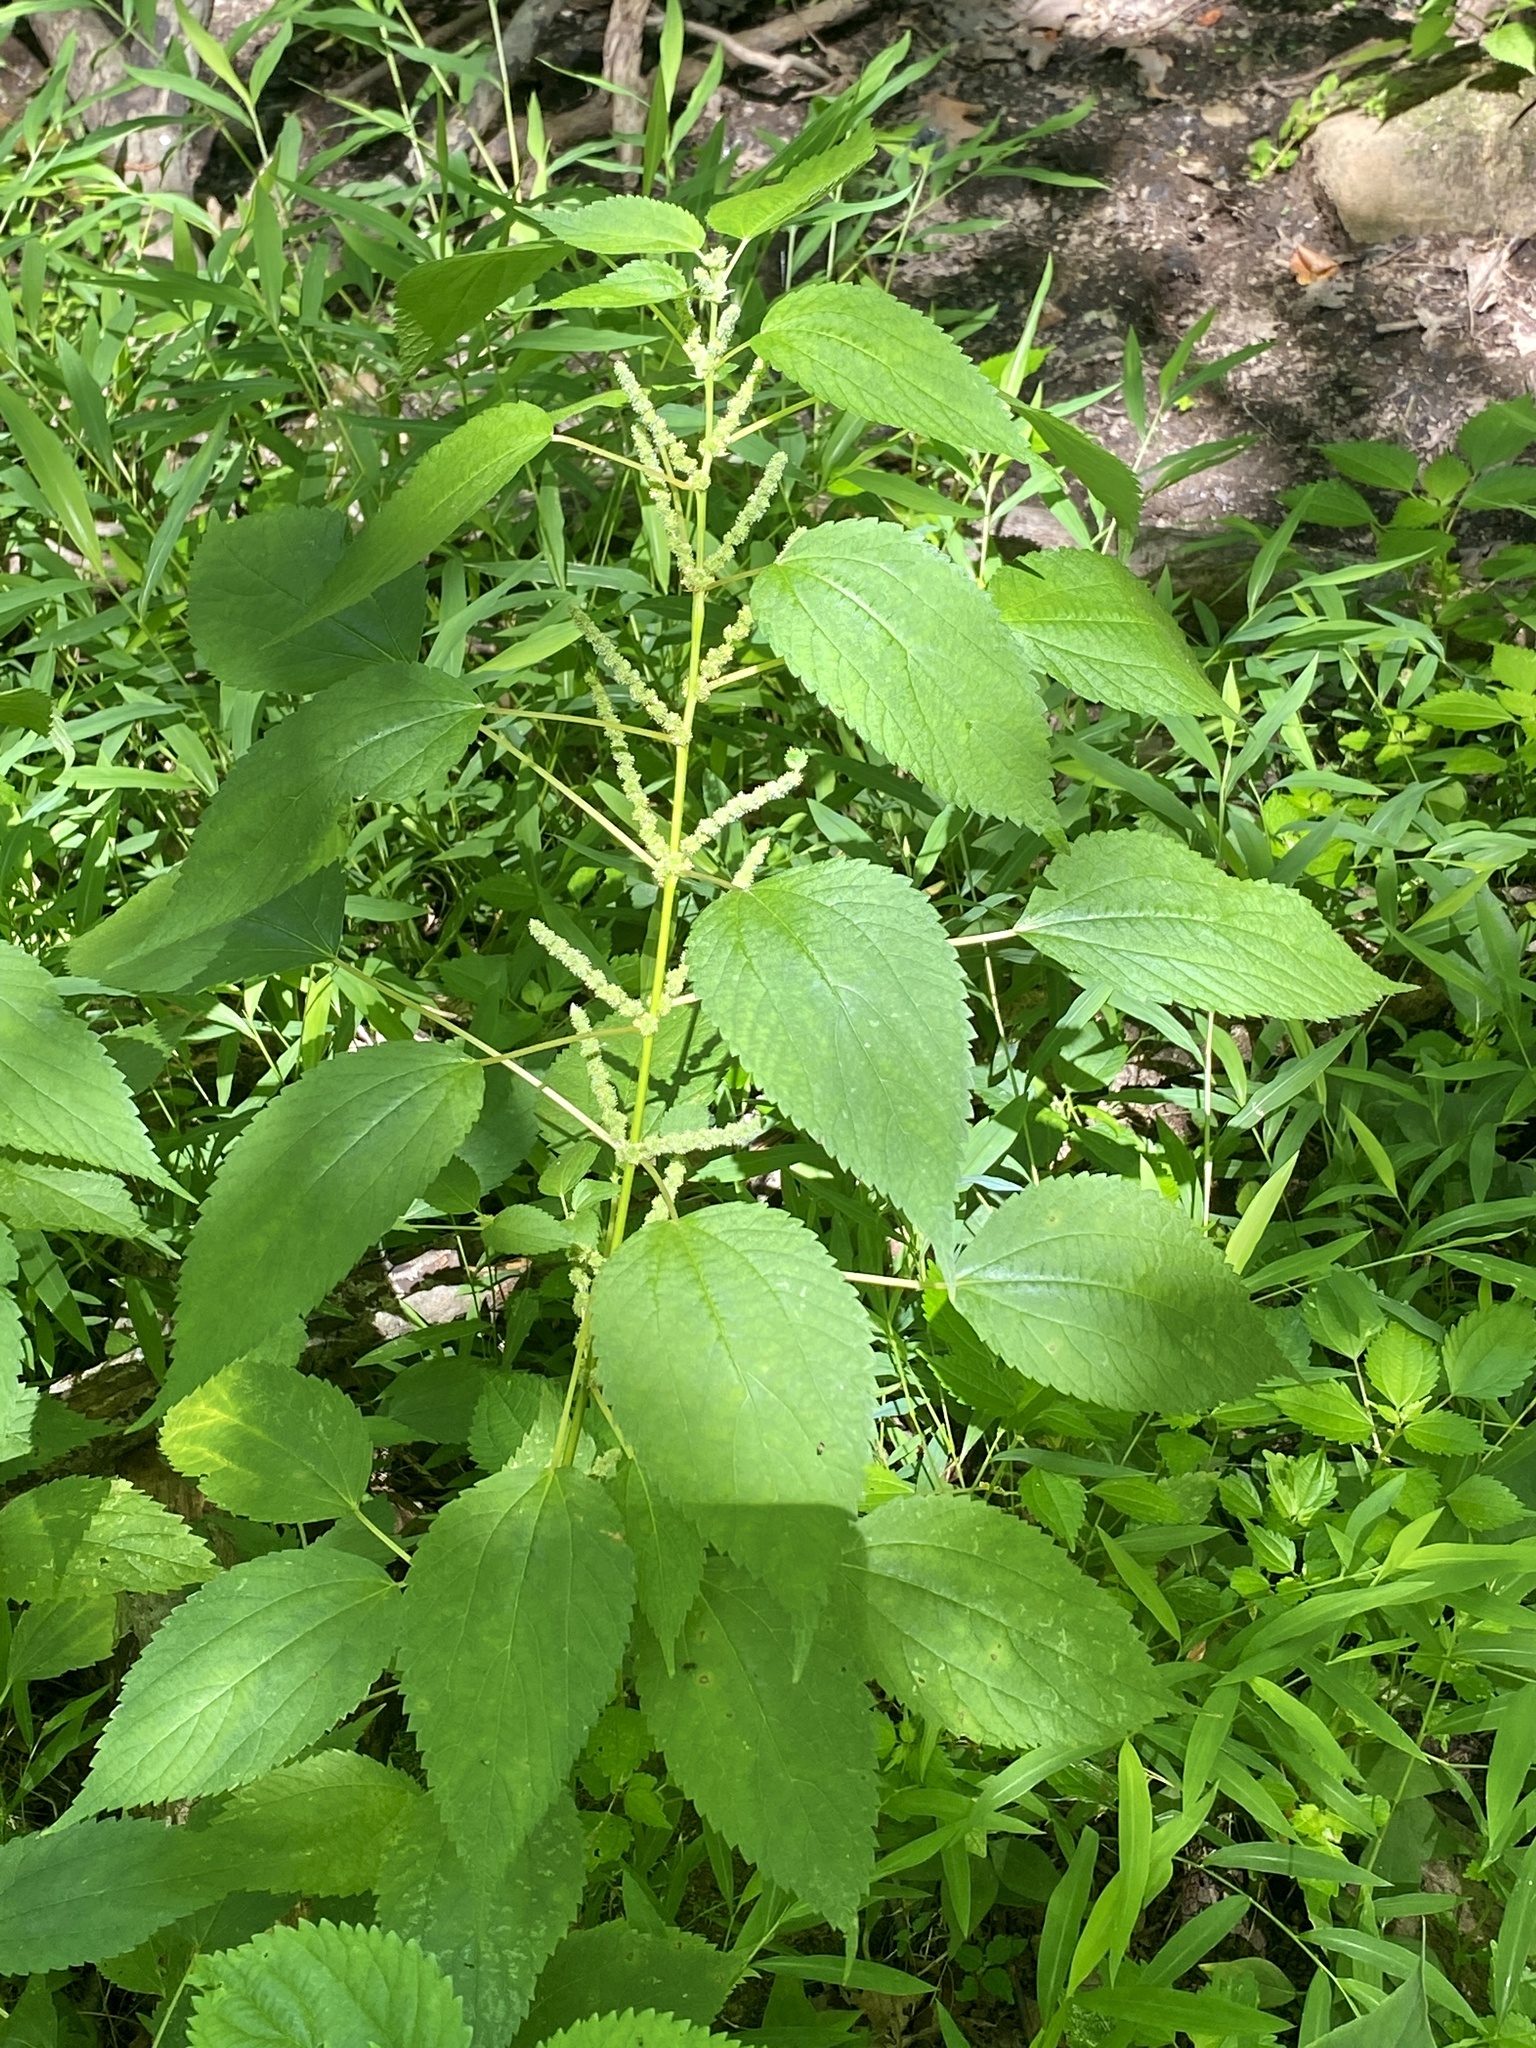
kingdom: Plantae
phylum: Tracheophyta
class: Magnoliopsida
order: Rosales
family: Urticaceae
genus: Boehmeria
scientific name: Boehmeria cylindrica
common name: Bog-hemp
